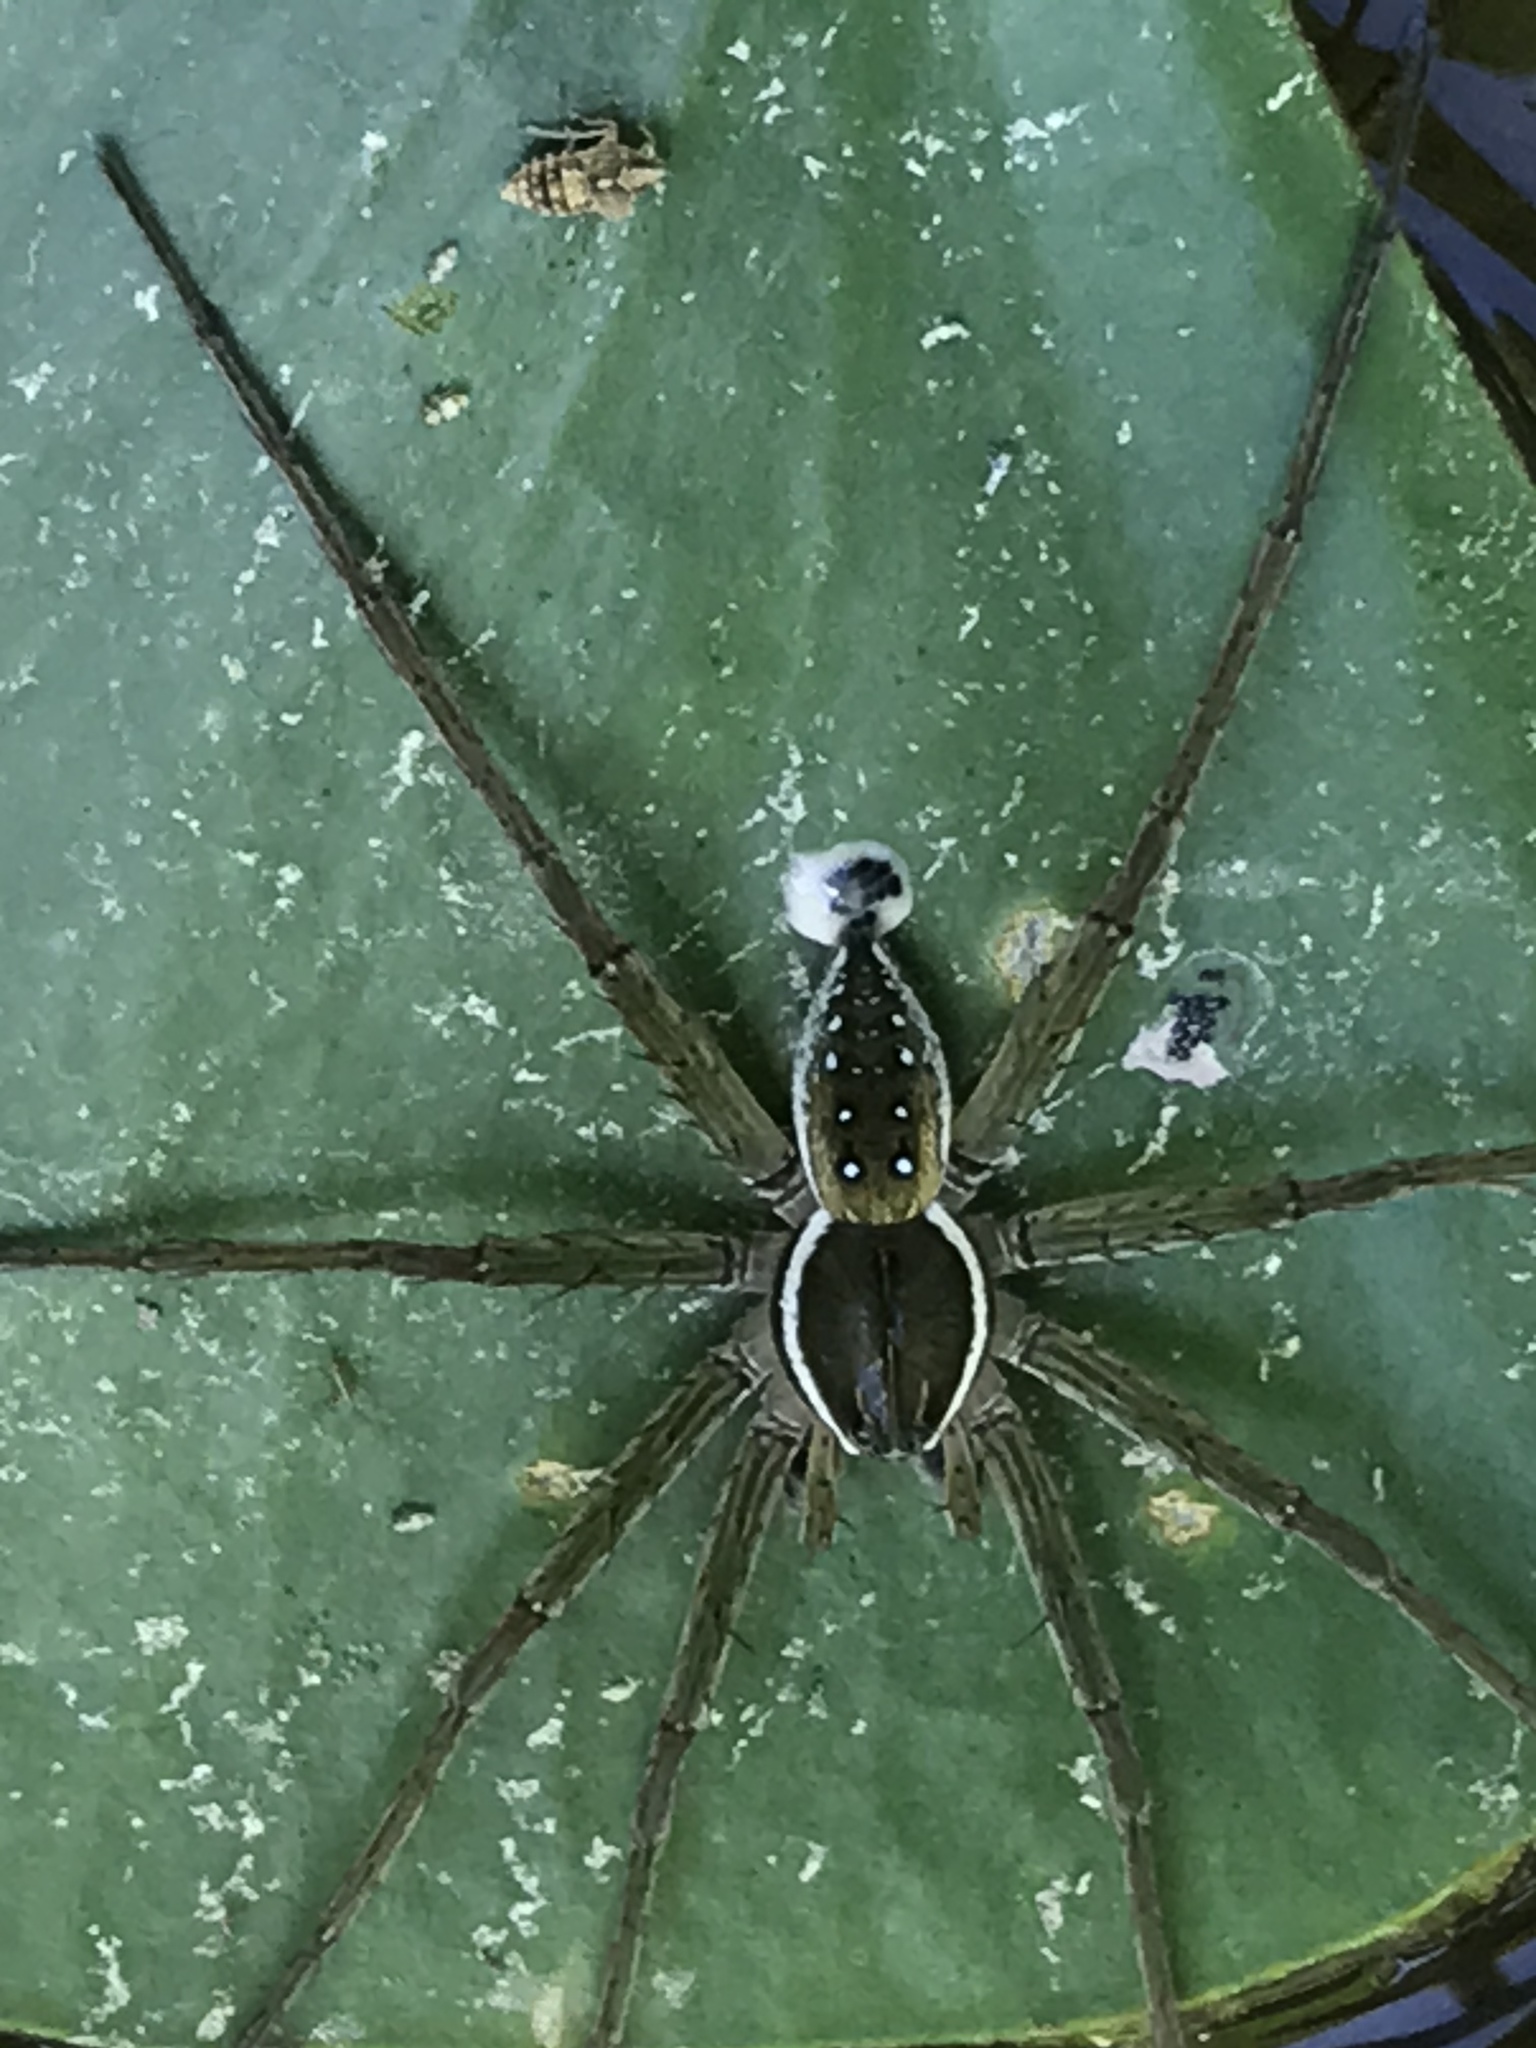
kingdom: Animalia
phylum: Arthropoda
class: Arachnida
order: Araneae
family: Pisauridae
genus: Dolomedes
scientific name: Dolomedes triton
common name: Six-spotted fishing spider
